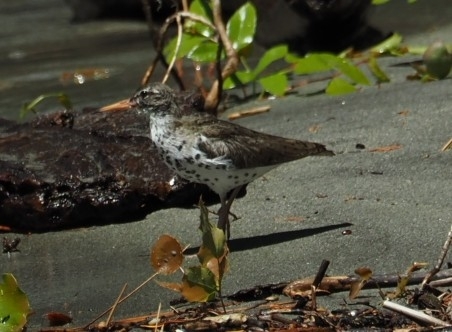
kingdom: Animalia
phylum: Chordata
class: Aves
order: Charadriiformes
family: Scolopacidae
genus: Actitis
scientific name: Actitis macularius
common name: Spotted sandpiper
